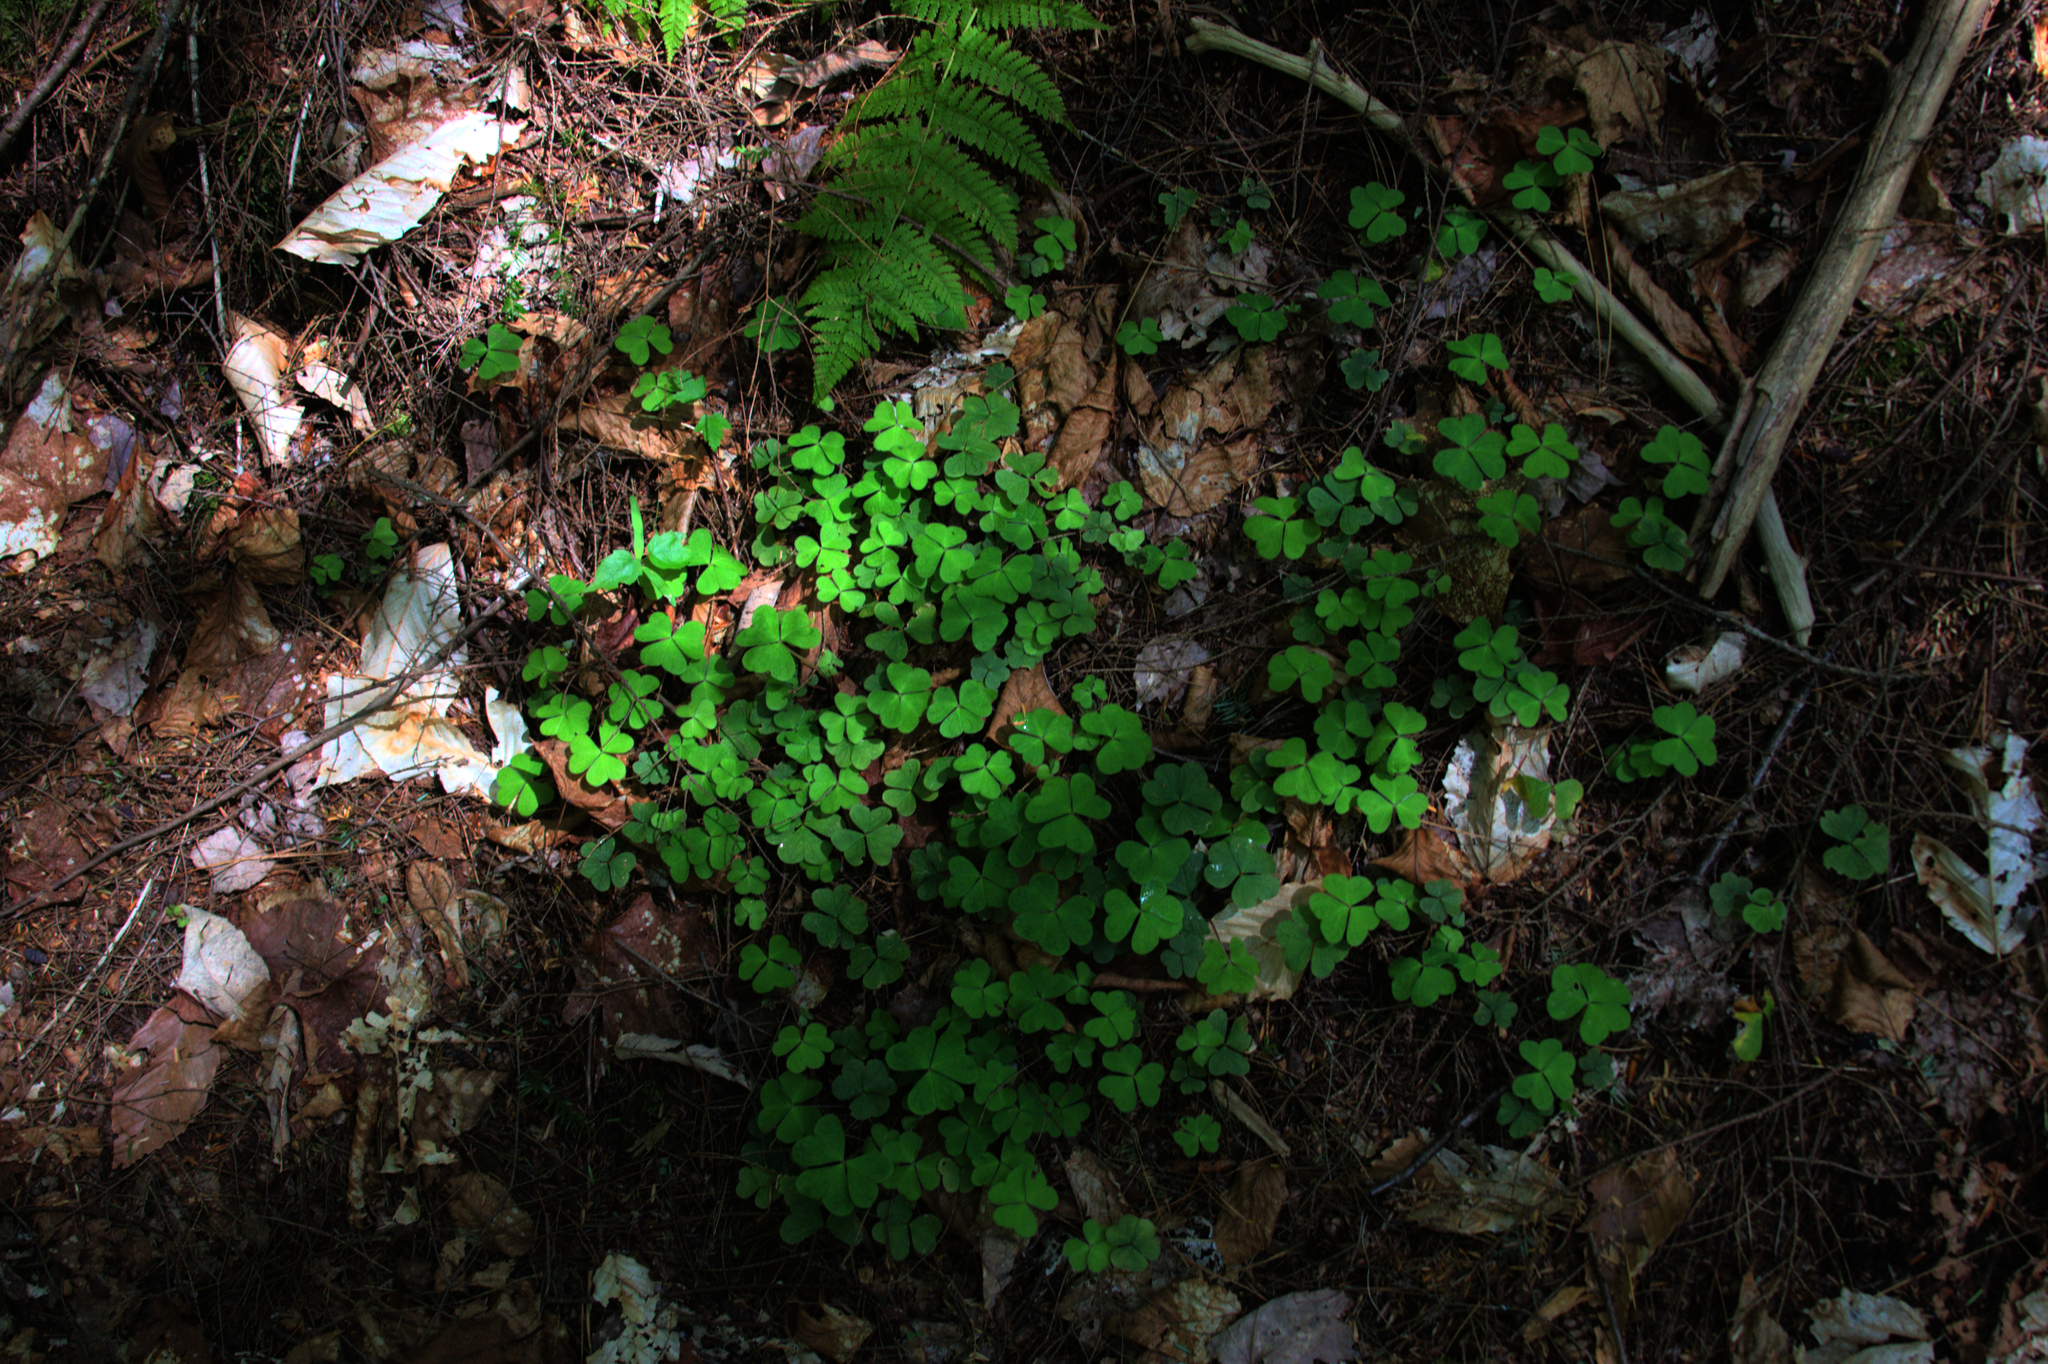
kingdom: Plantae
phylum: Tracheophyta
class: Magnoliopsida
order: Oxalidales
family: Oxalidaceae
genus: Oxalis
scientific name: Oxalis montana
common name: American wood-sorrel
